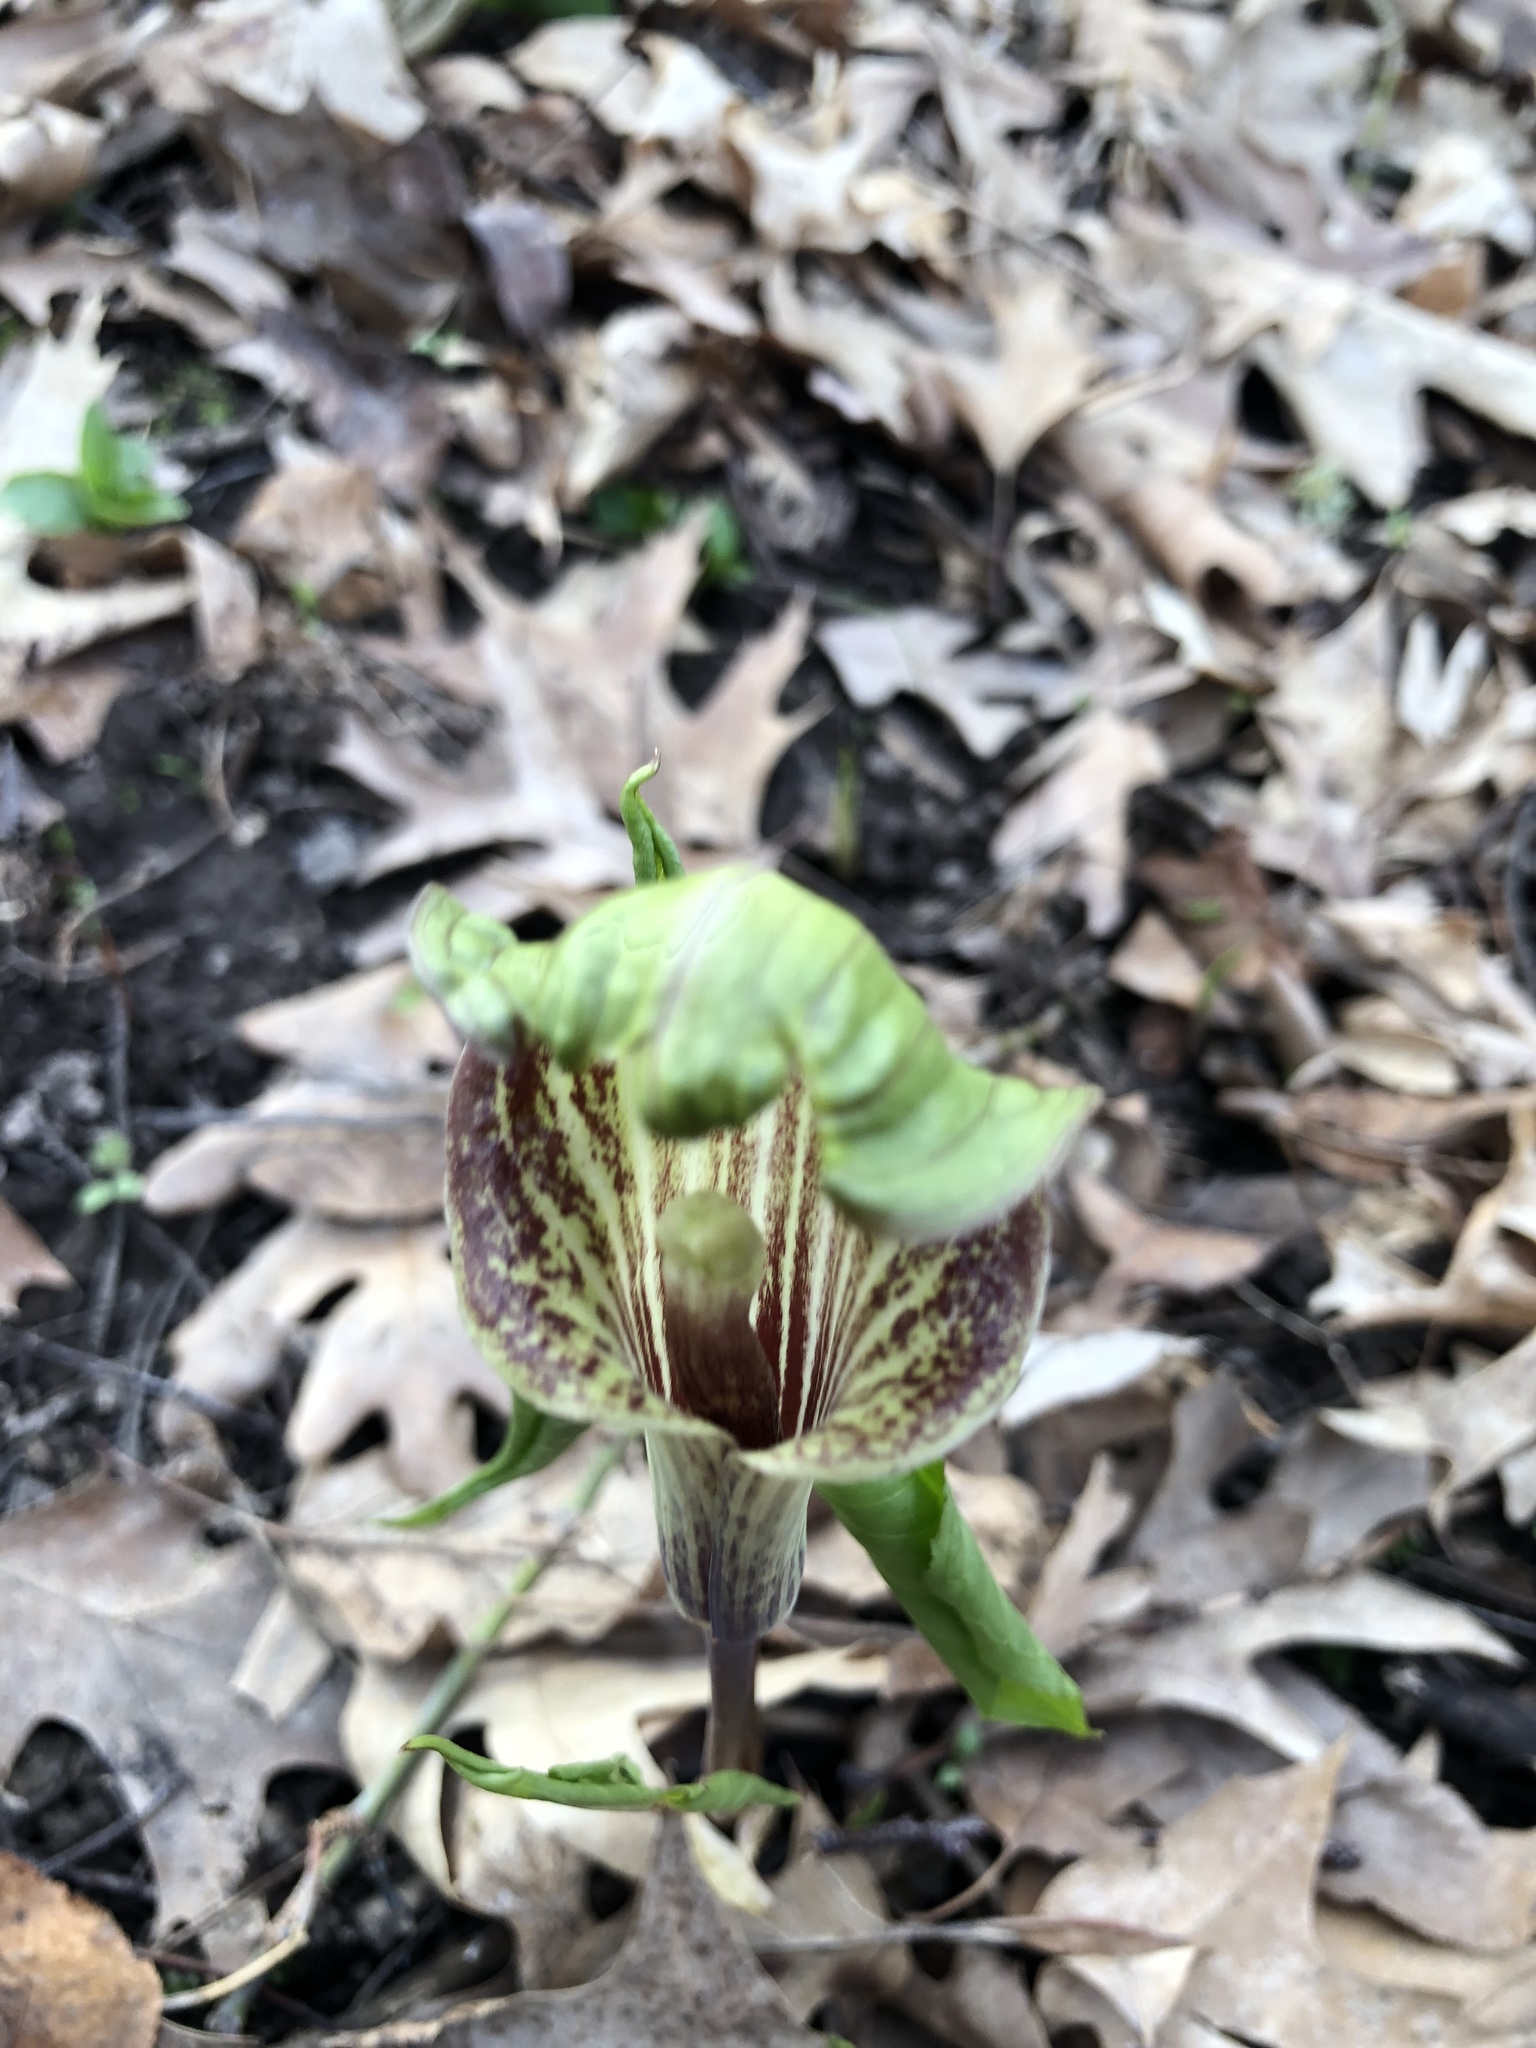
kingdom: Plantae
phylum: Tracheophyta
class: Liliopsida
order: Alismatales
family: Araceae
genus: Arisaema
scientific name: Arisaema triphyllum
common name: Jack-in-the-pulpit
